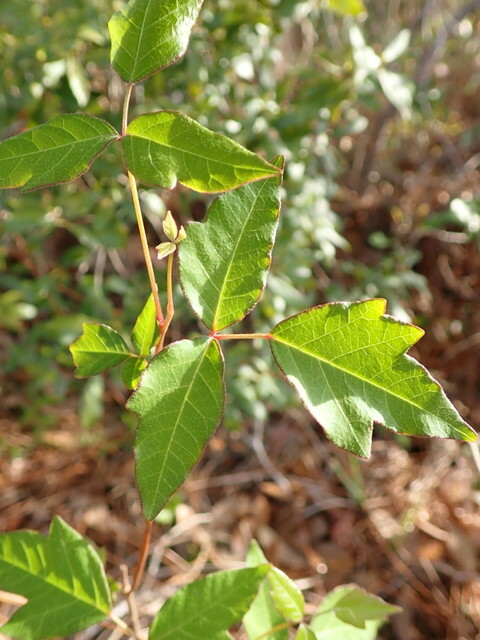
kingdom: Plantae
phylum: Tracheophyta
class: Magnoliopsida
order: Sapindales
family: Anacardiaceae
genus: Toxicodendron
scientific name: Toxicodendron radicans
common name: Poison ivy
